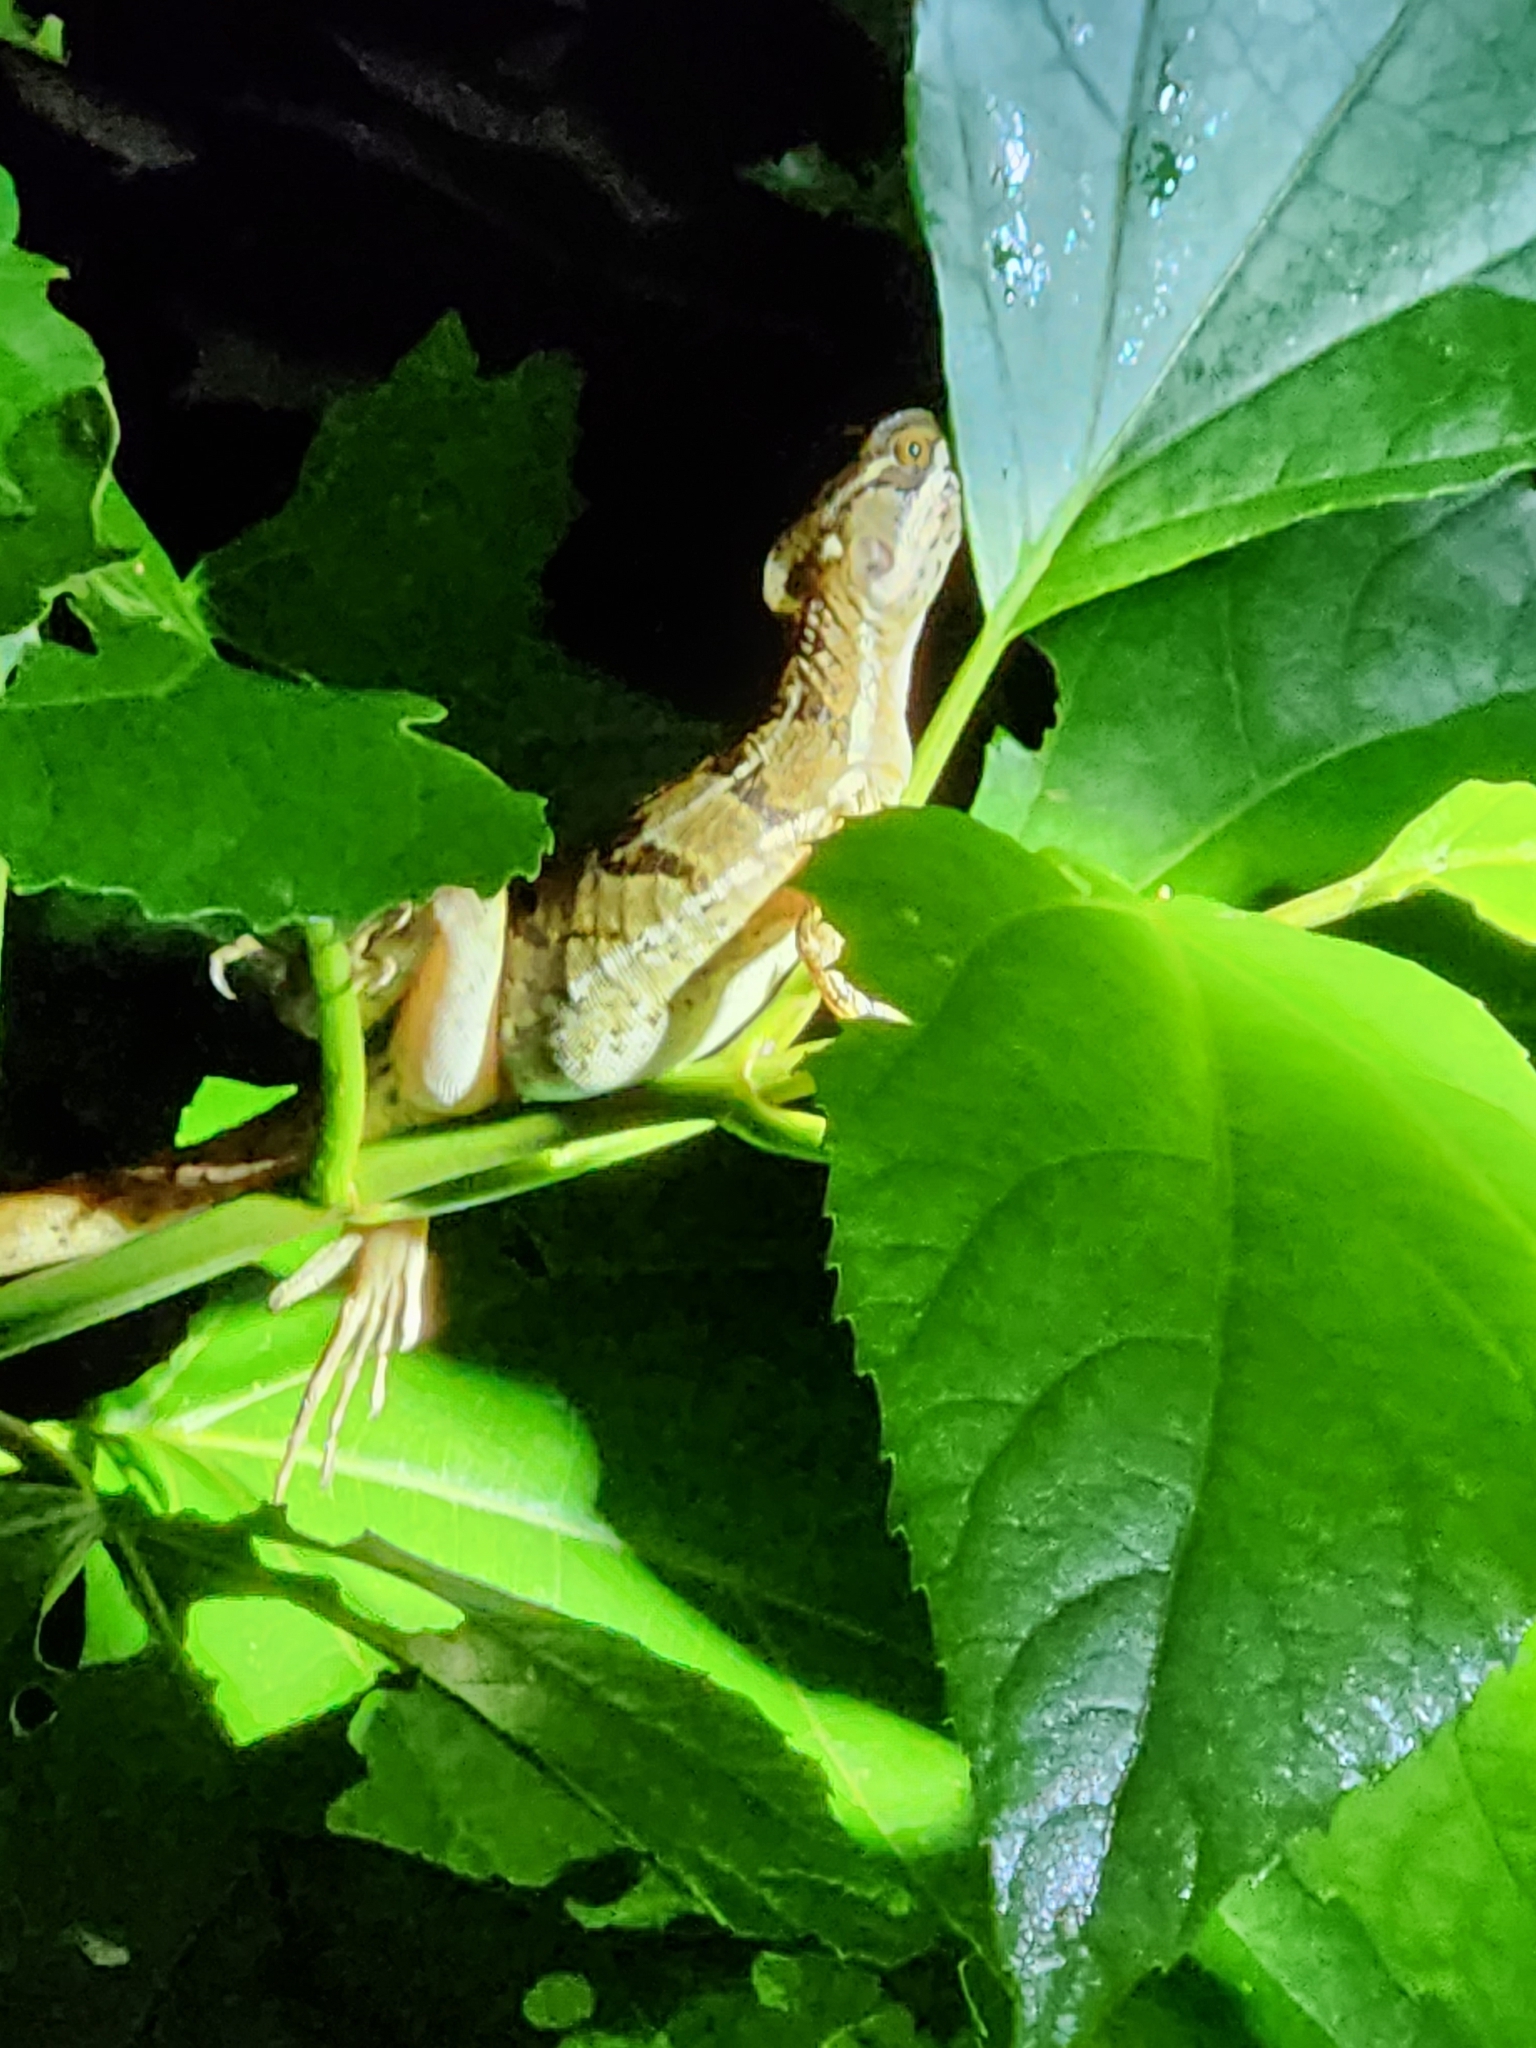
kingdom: Animalia
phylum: Chordata
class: Squamata
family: Corytophanidae
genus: Basiliscus
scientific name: Basiliscus basiliscus
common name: Common basilisk
